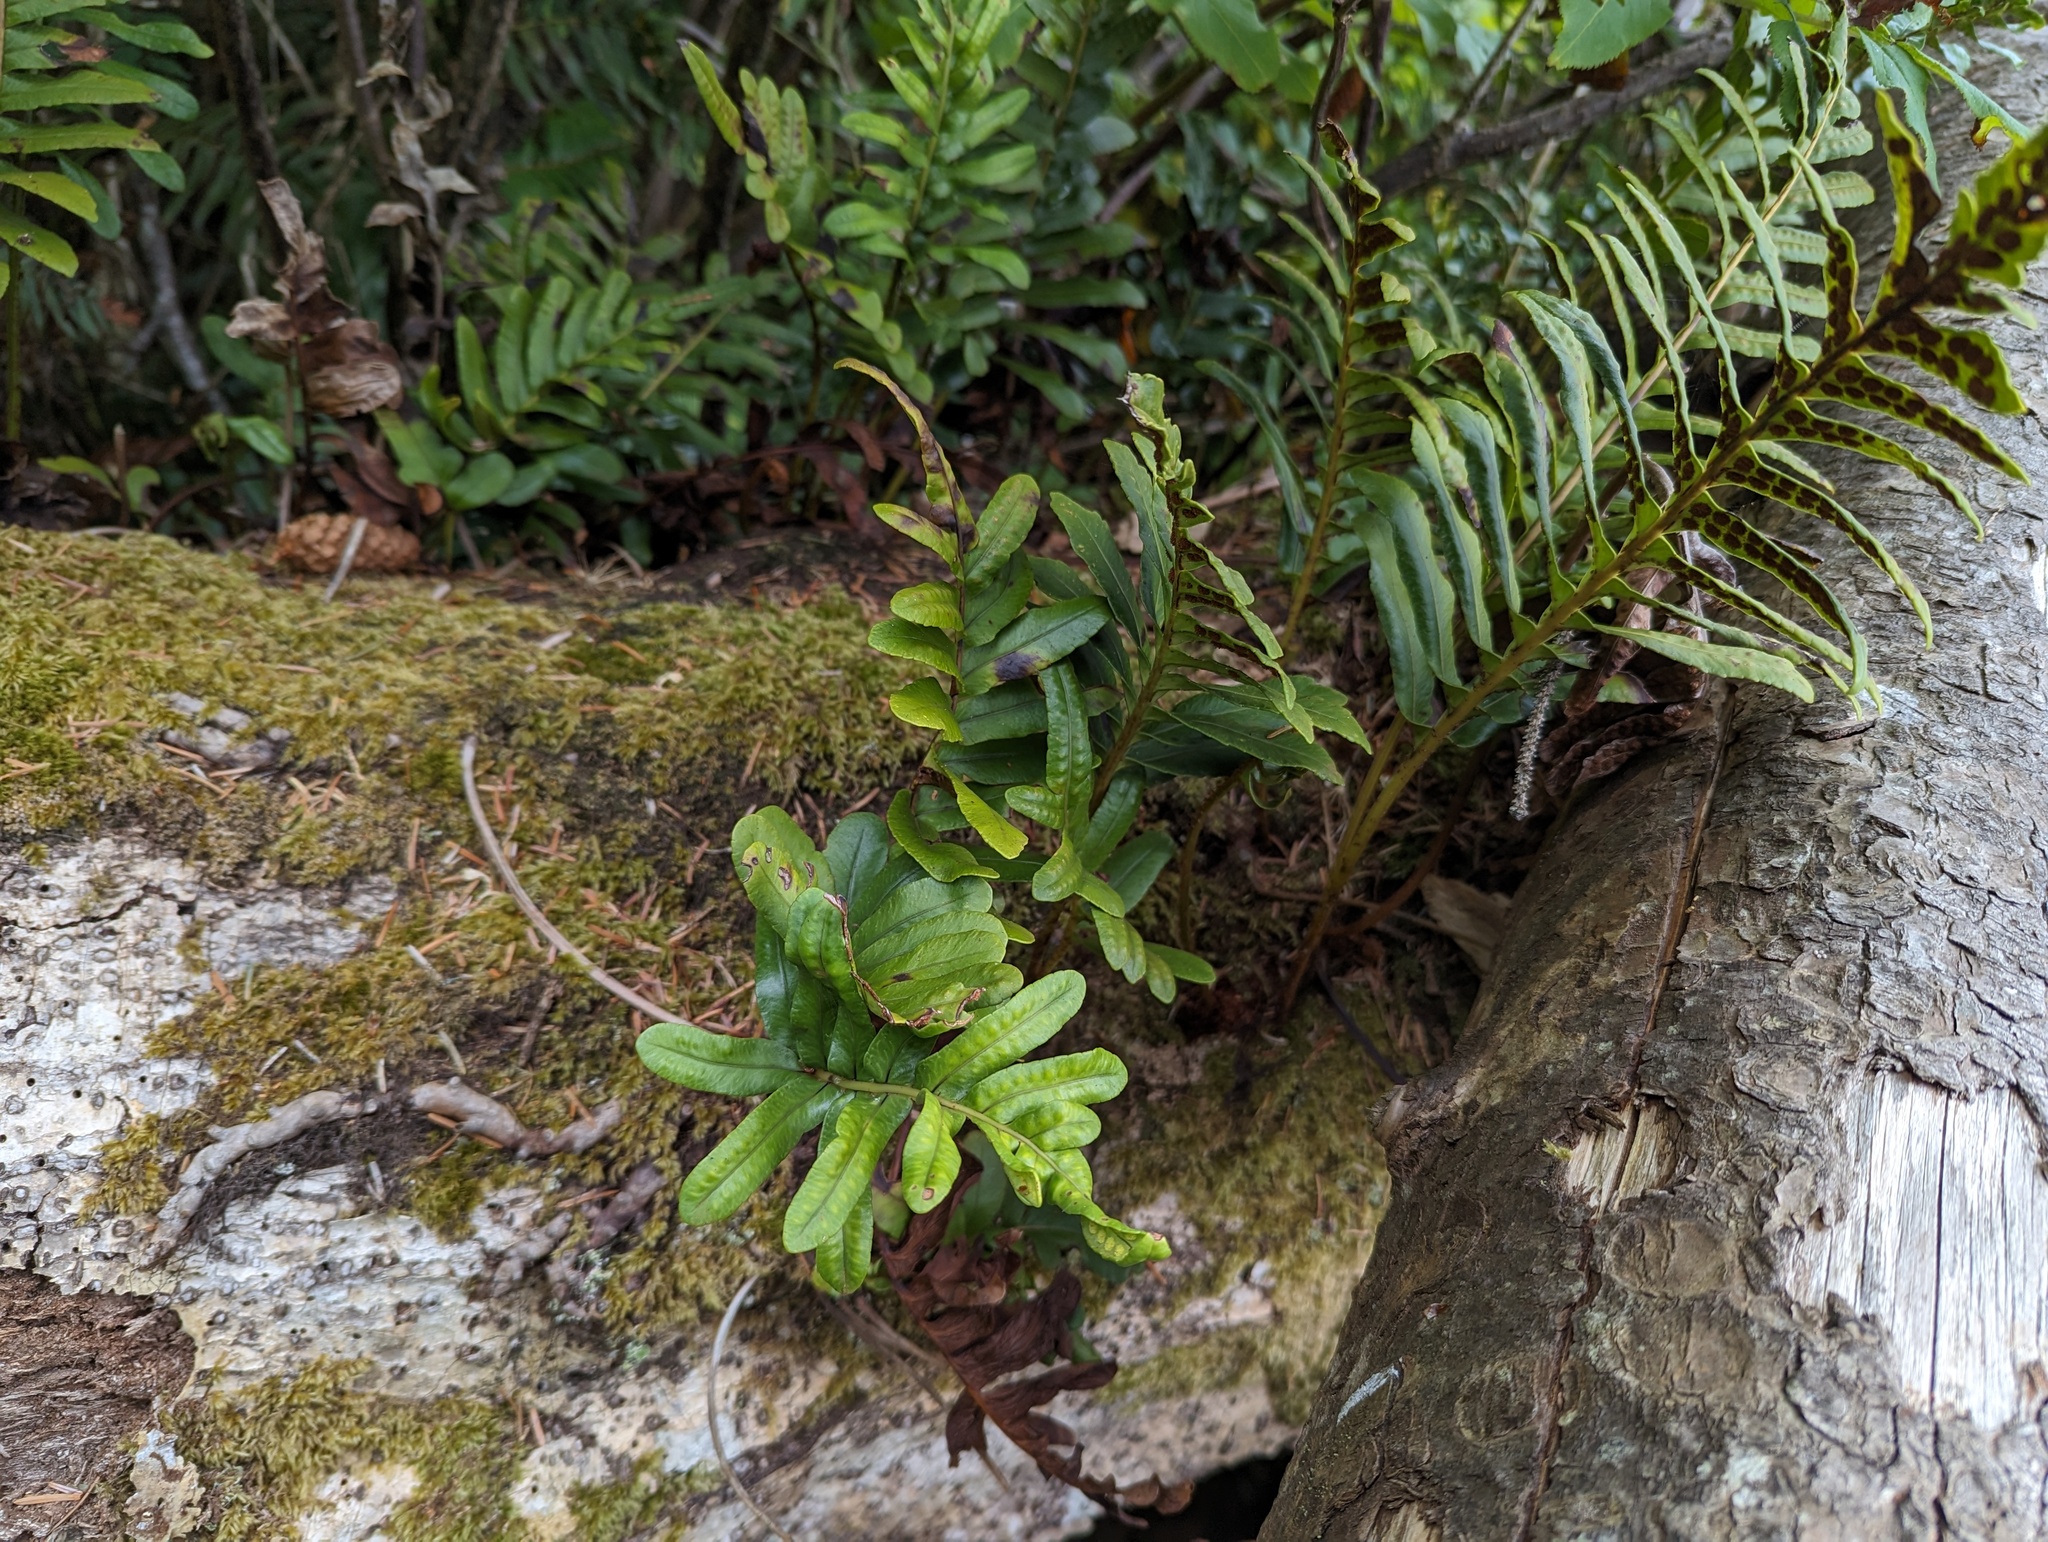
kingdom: Plantae
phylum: Tracheophyta
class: Polypodiopsida
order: Polypodiales
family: Polypodiaceae
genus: Polypodium
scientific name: Polypodium scouleri
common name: Scouler's polypody
